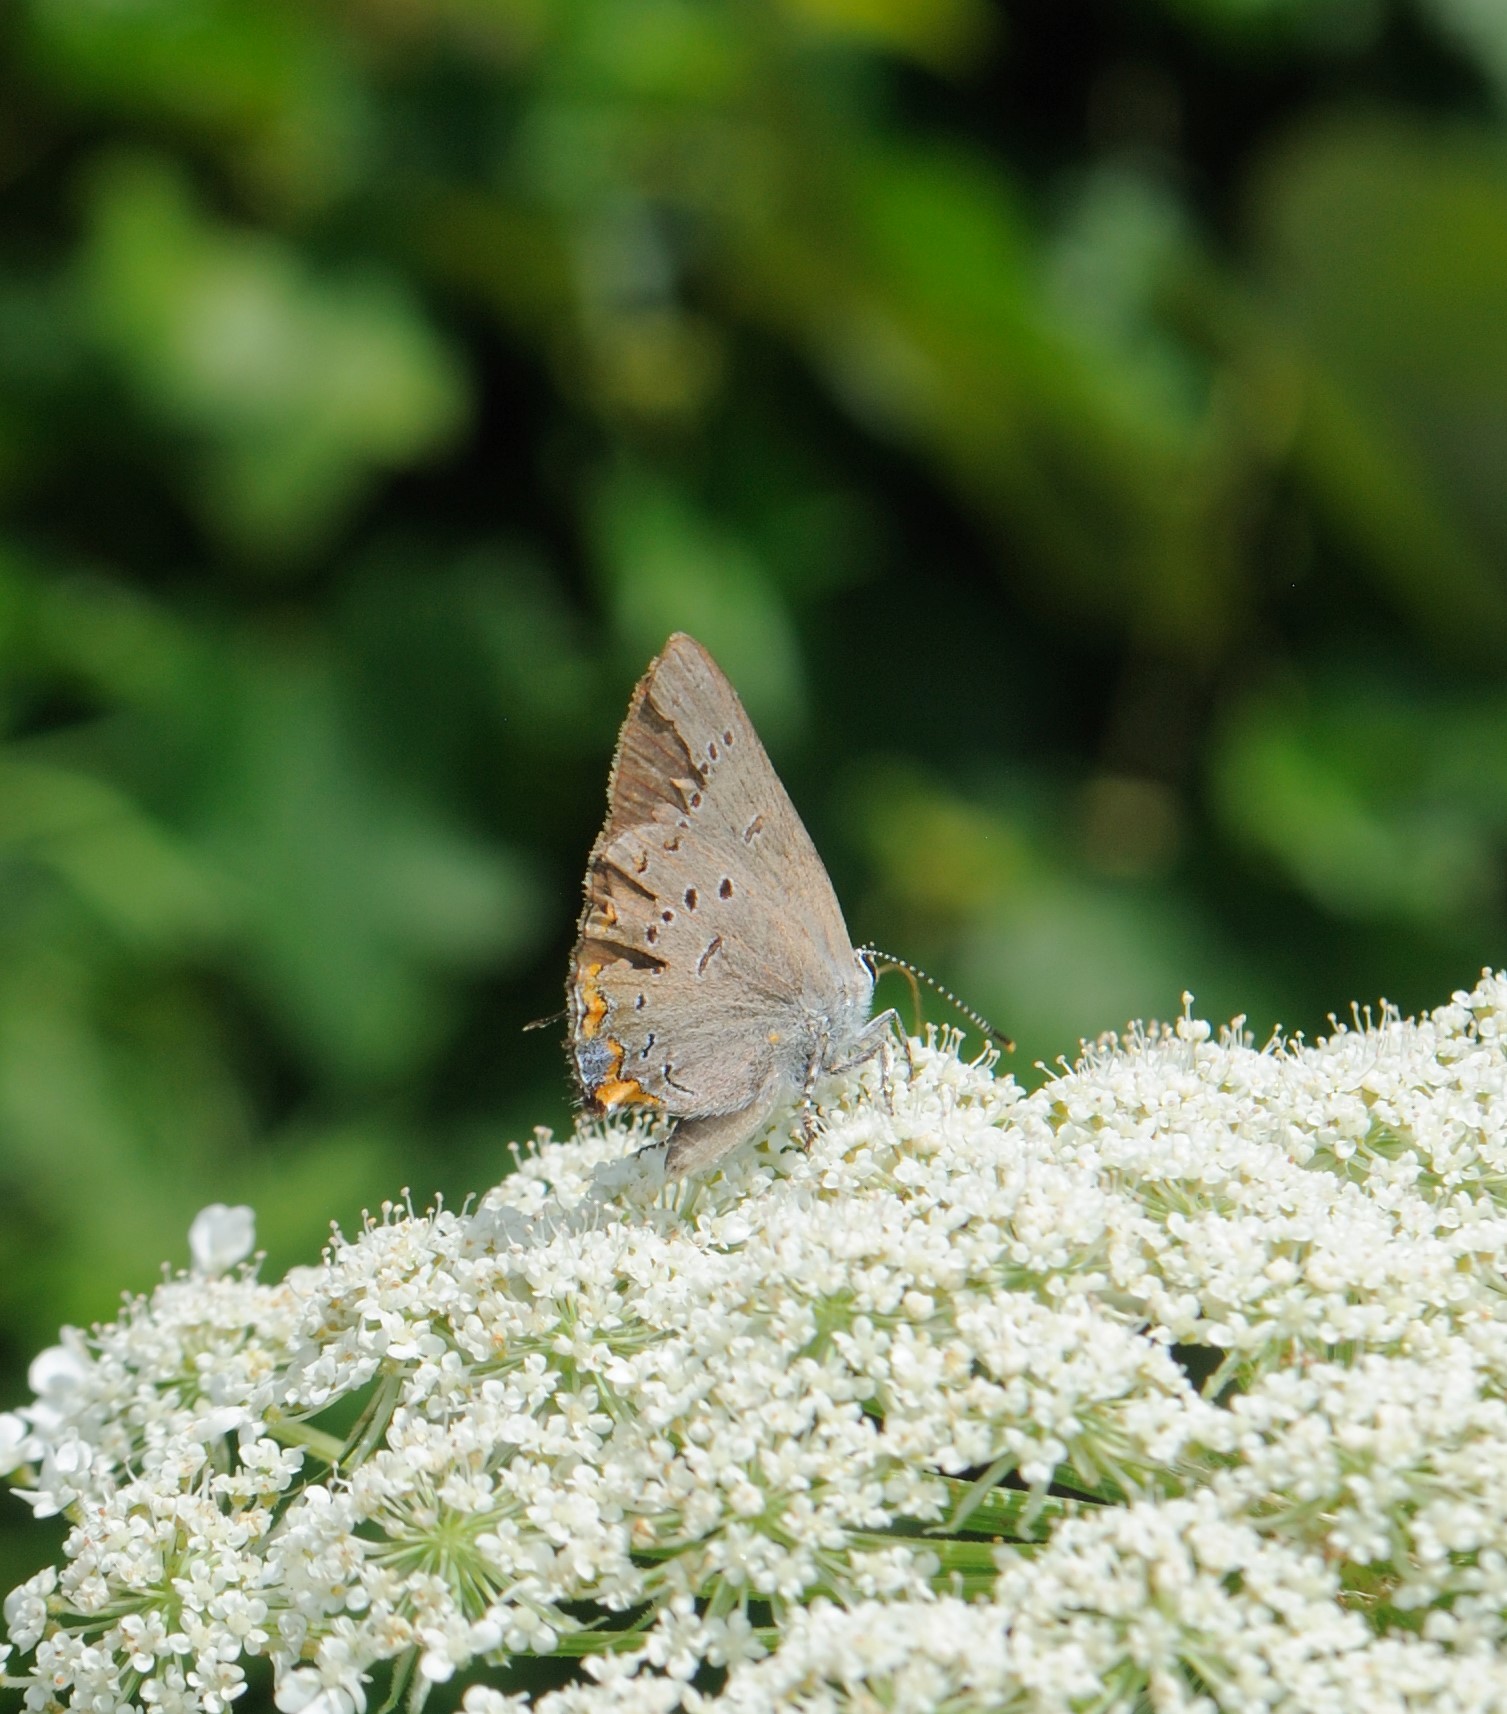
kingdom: Animalia
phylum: Arthropoda
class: Insecta
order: Lepidoptera
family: Lycaenidae
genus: Strymon
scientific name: Strymon acadica
